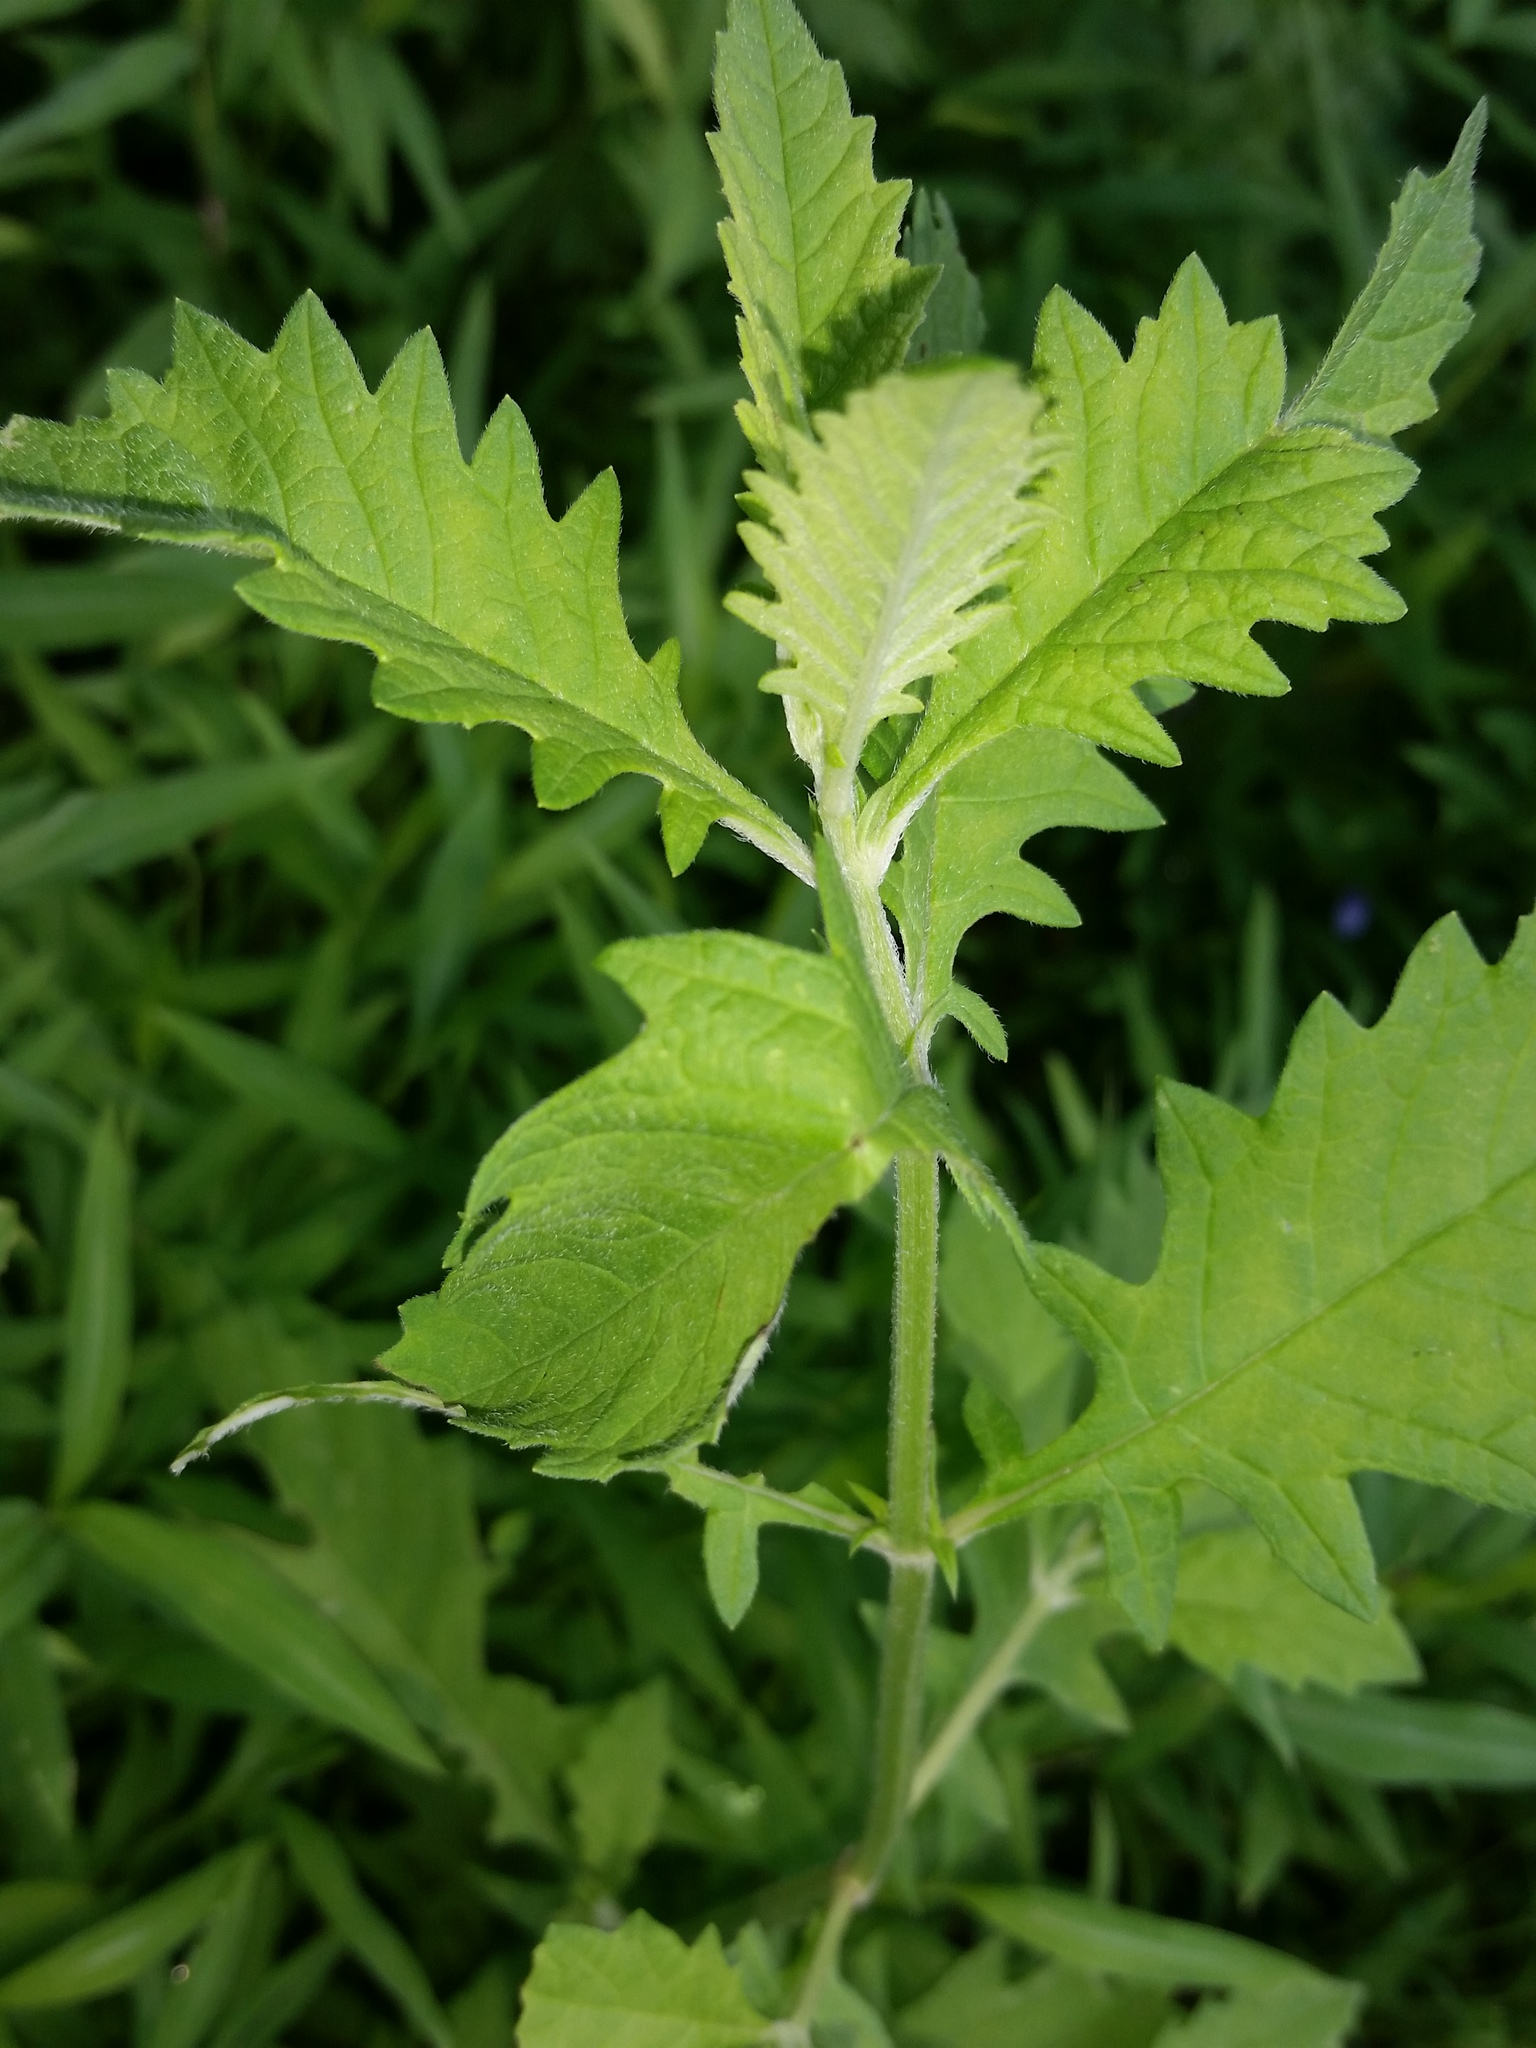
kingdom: Plantae
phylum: Tracheophyta
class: Magnoliopsida
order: Lamiales
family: Lamiaceae
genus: Lycopus
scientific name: Lycopus americanus
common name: American bugleweed
